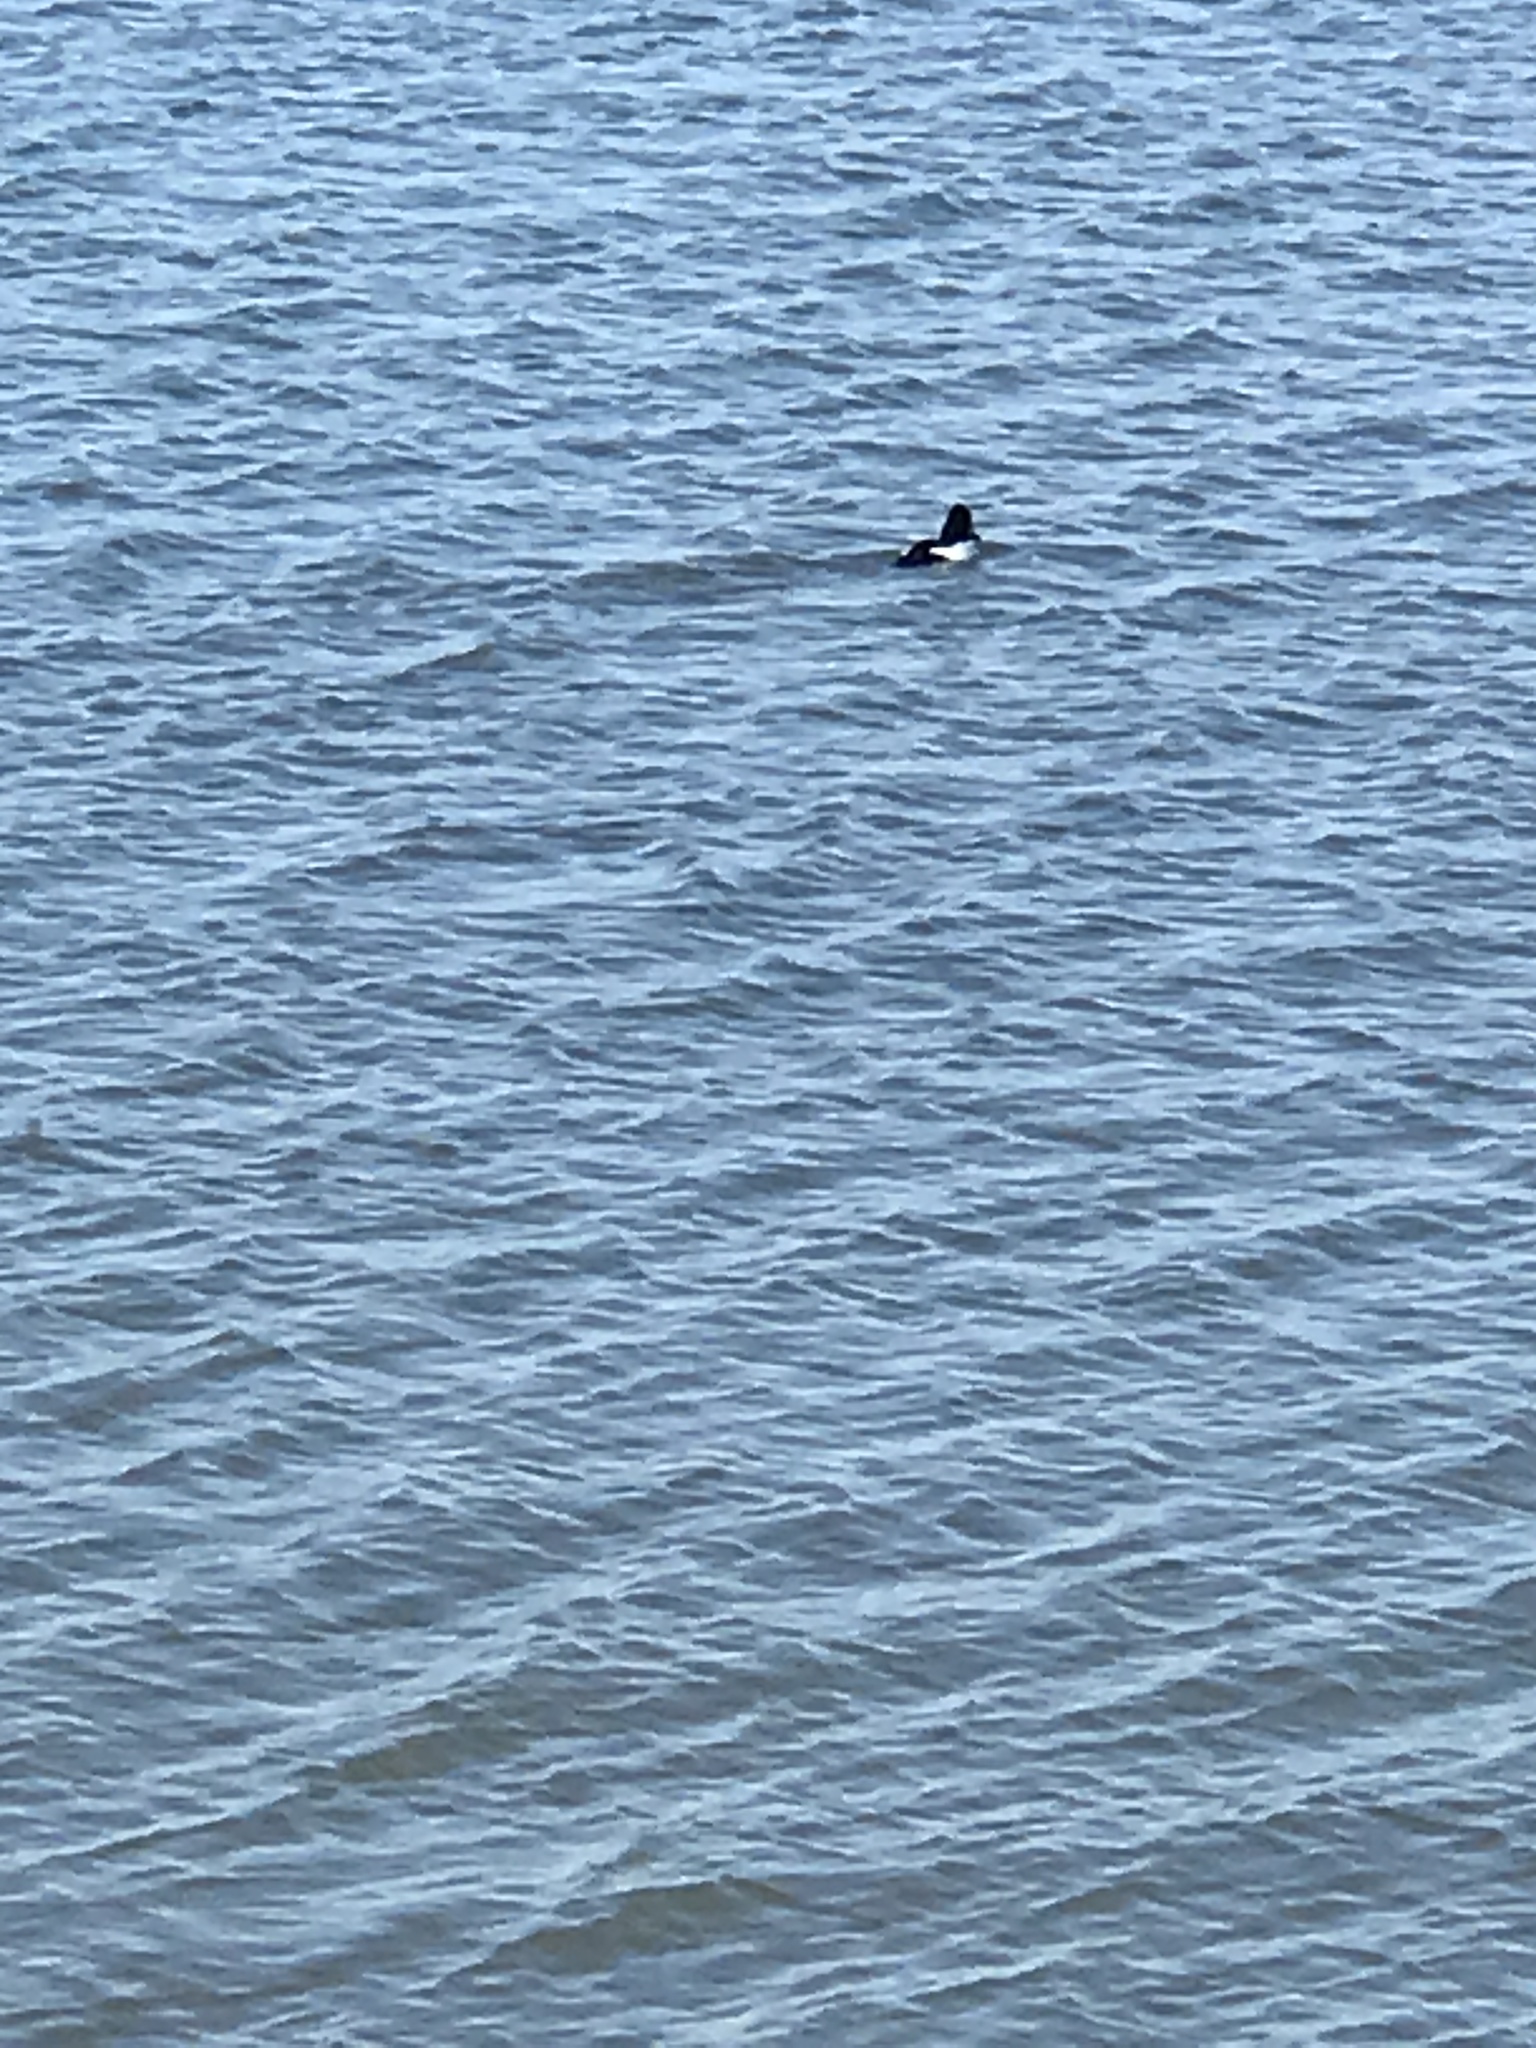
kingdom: Animalia
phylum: Chordata
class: Aves
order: Anseriformes
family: Anatidae
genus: Bucephala
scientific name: Bucephala clangula
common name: Common goldeneye
